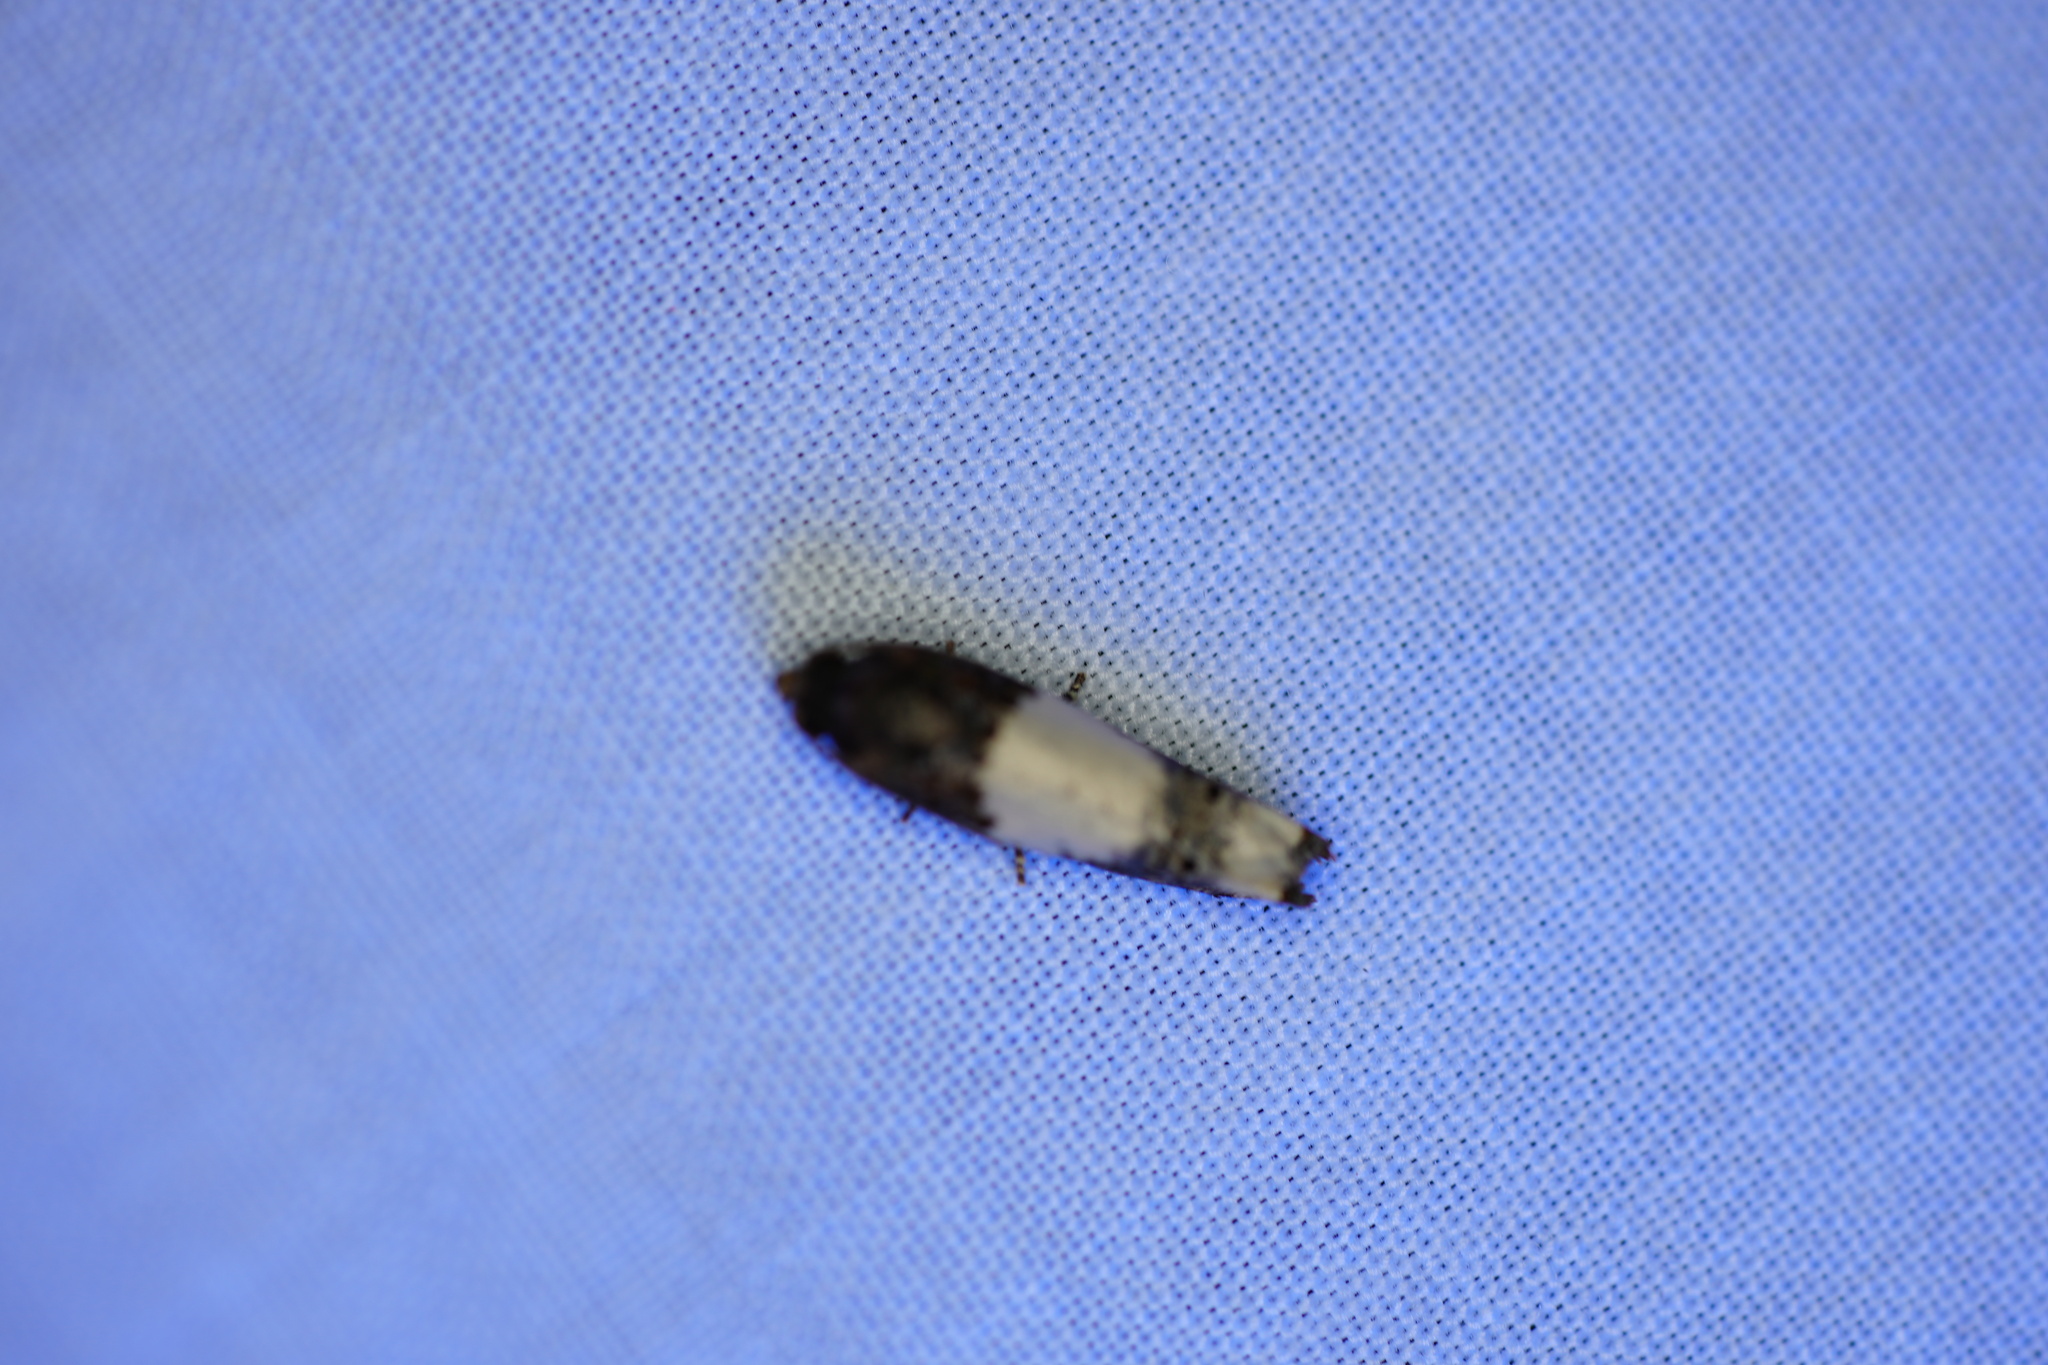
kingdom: Animalia
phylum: Arthropoda
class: Insecta
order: Lepidoptera
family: Tortricidae
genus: Epiblema
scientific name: Epiblema scudderiana
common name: Goldenrod gall moth
